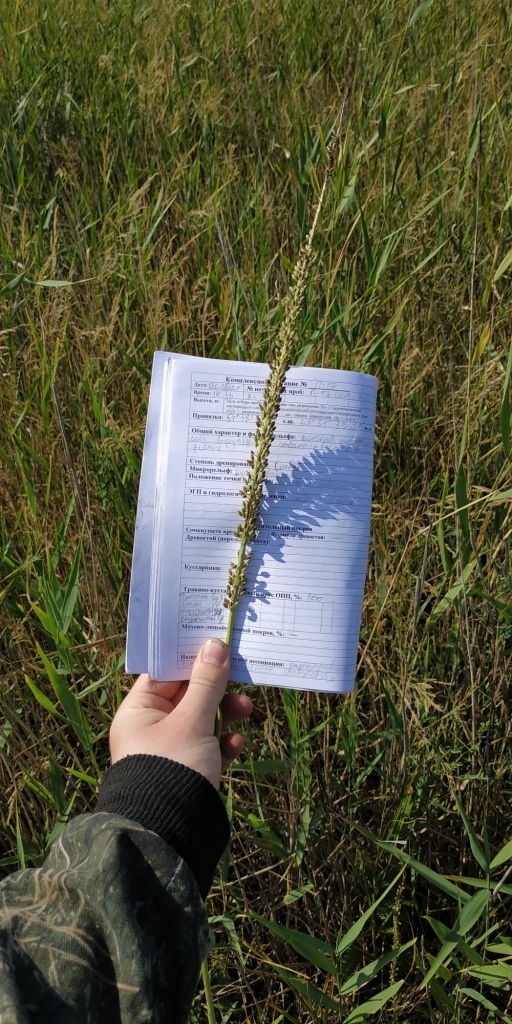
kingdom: Plantae
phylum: Tracheophyta
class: Liliopsida
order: Alismatales
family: Juncaginaceae
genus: Triglochin
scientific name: Triglochin maritima
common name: Sea arrowgrass
